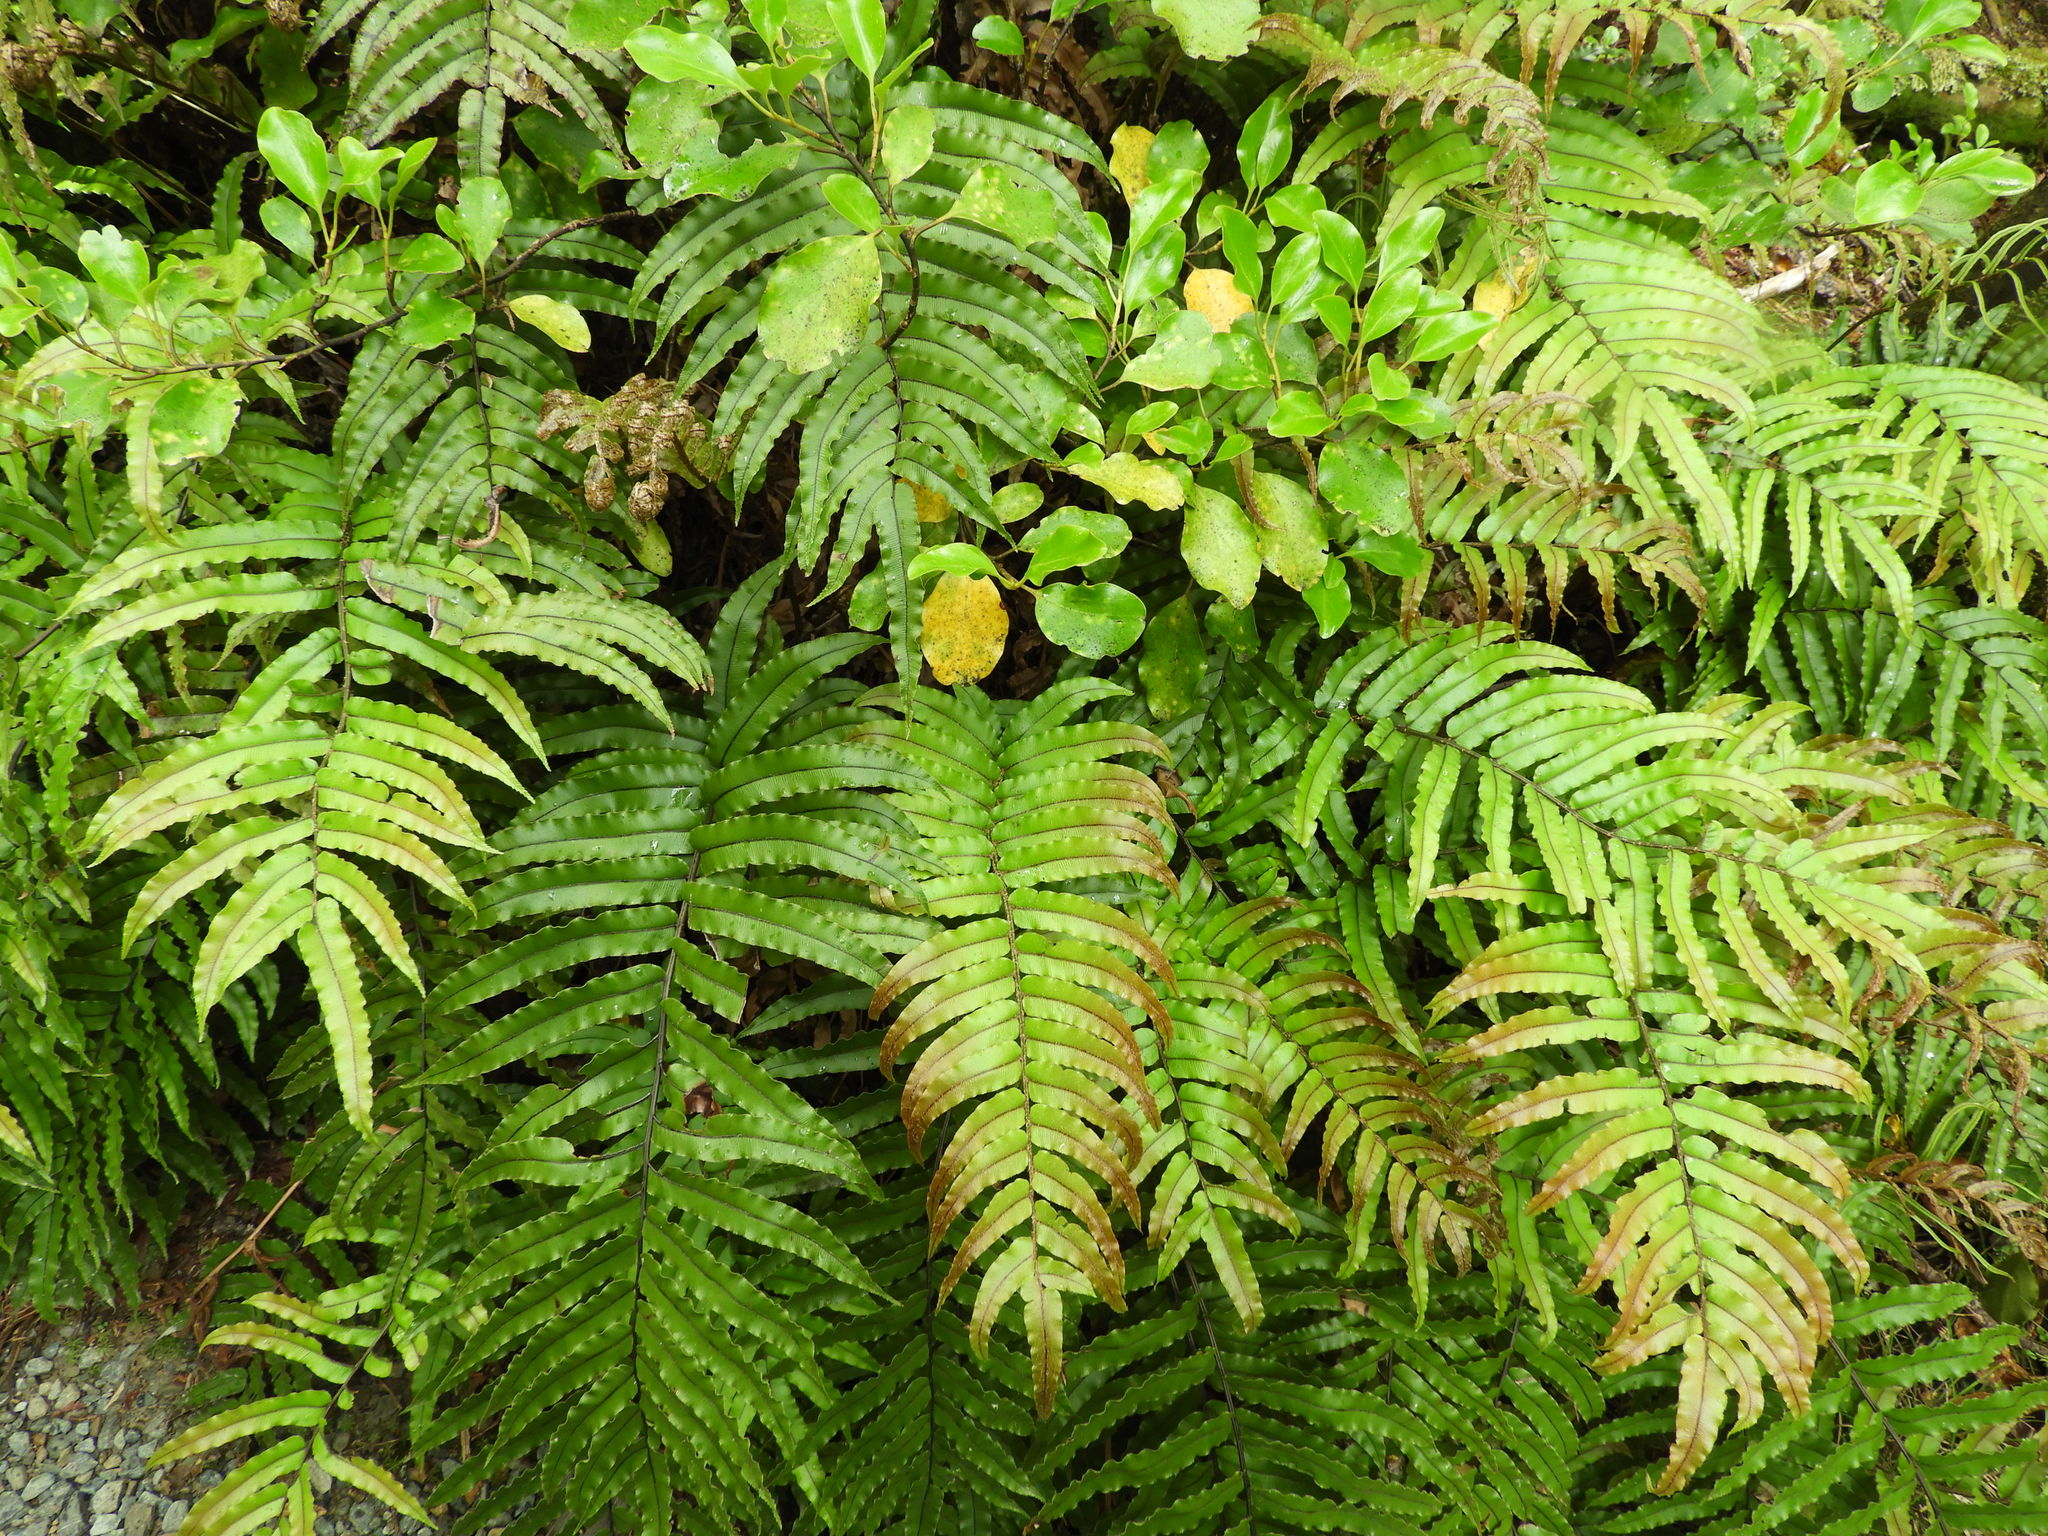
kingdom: Plantae
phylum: Tracheophyta
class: Polypodiopsida
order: Polypodiales
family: Blechnaceae
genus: Parablechnum
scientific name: Parablechnum montanum
